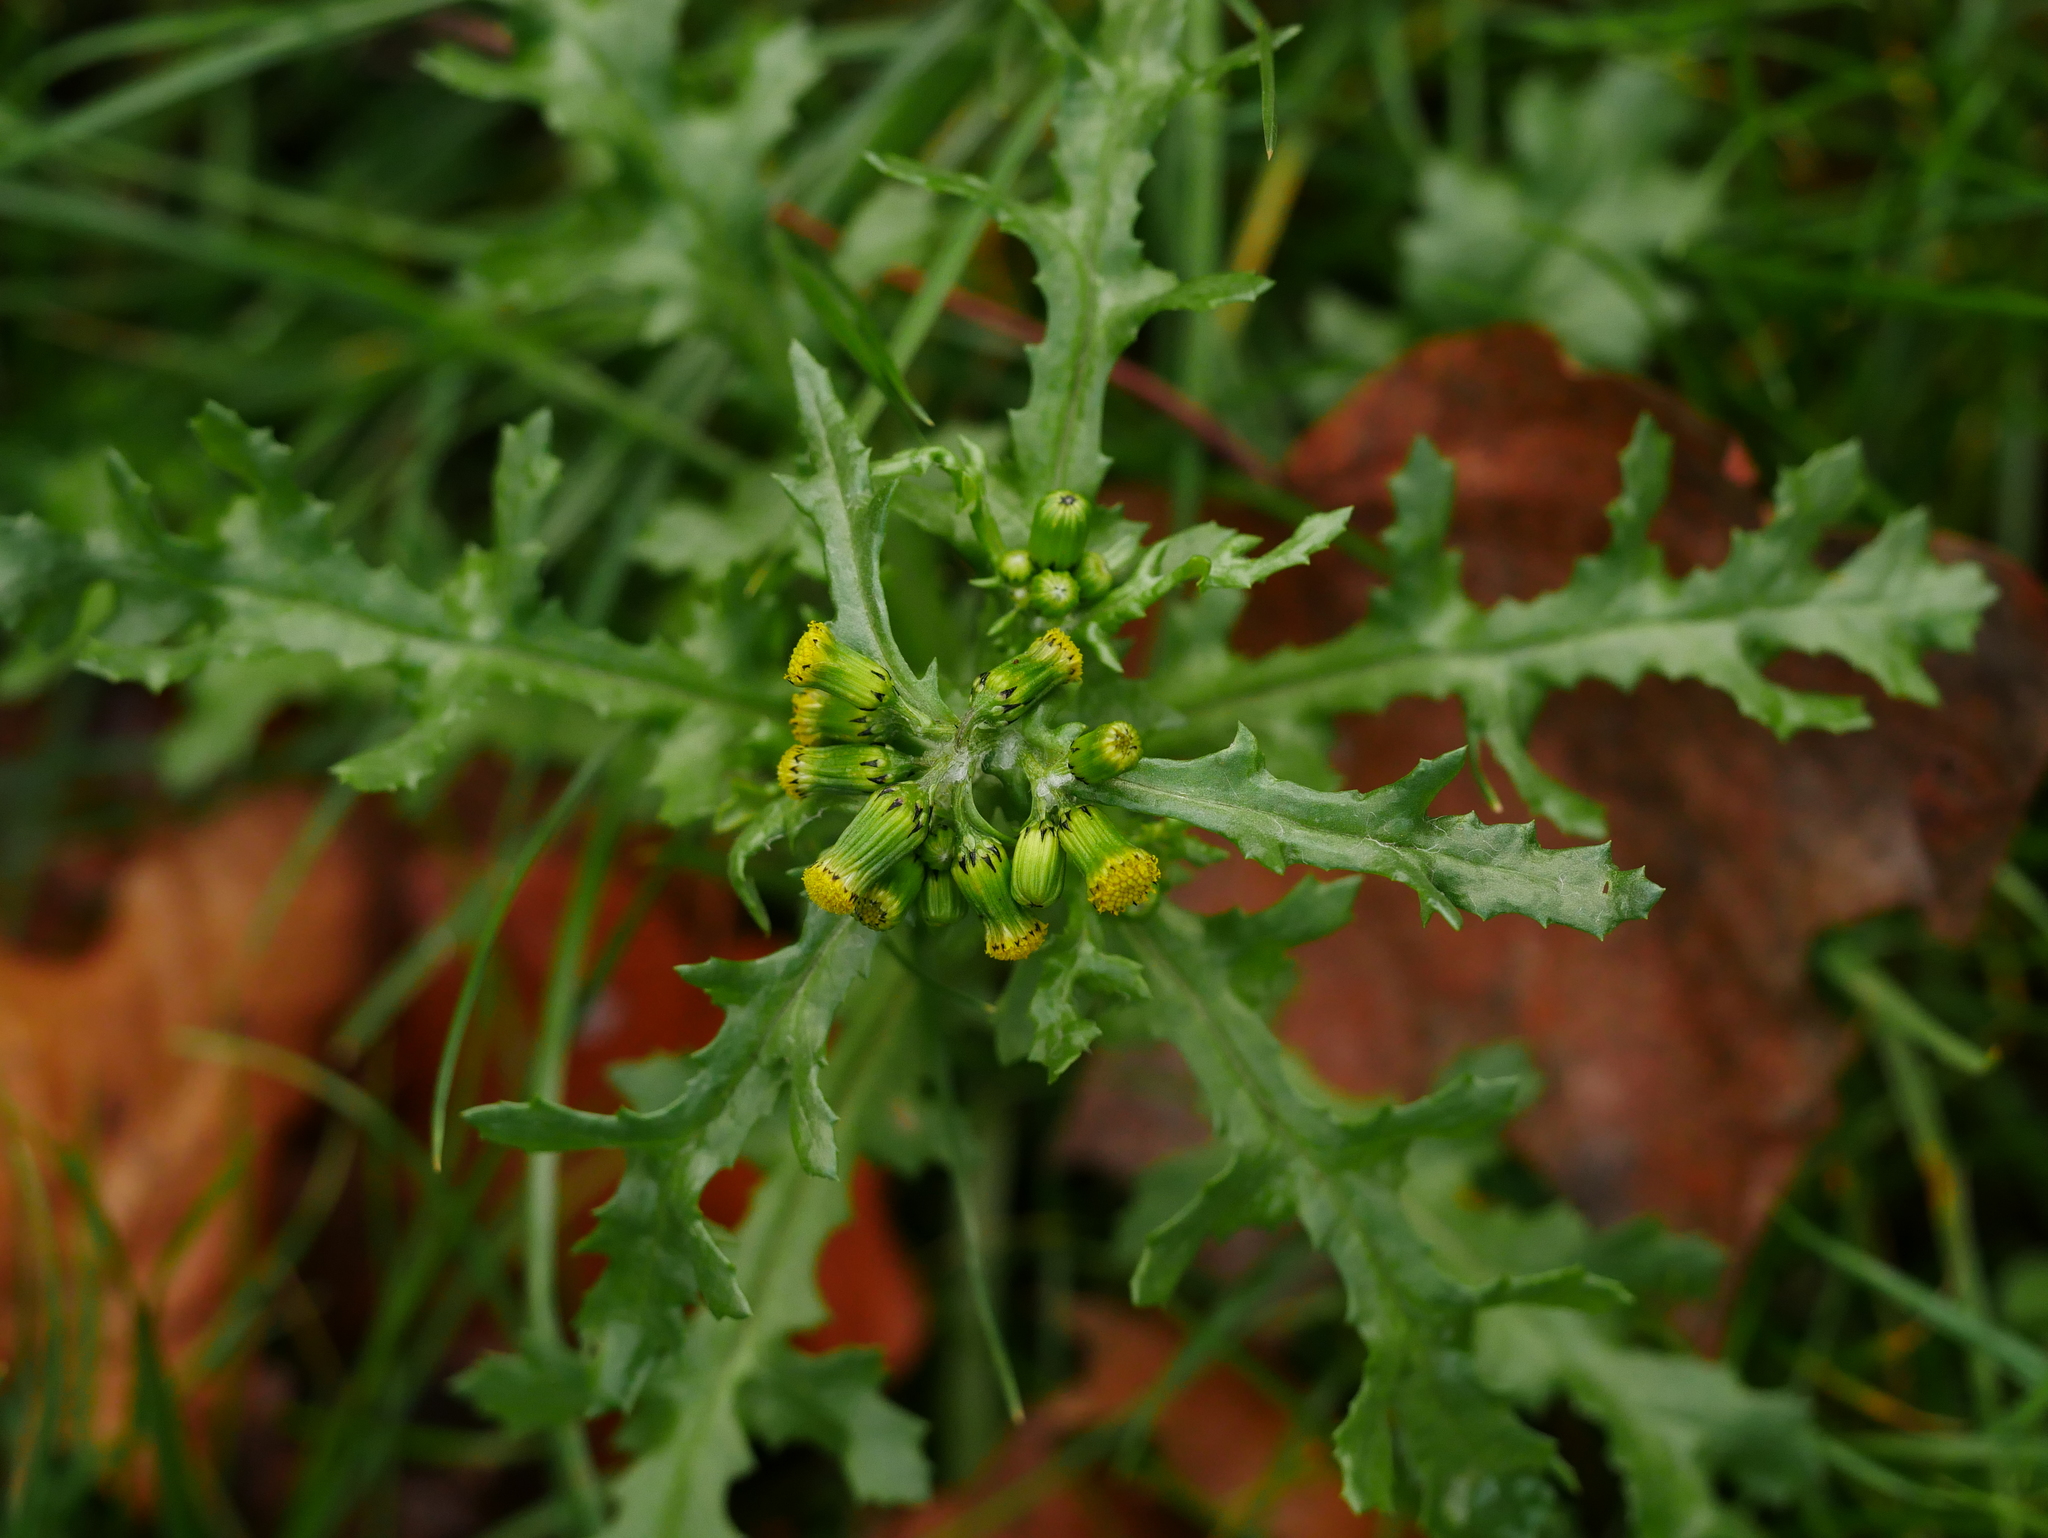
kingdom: Plantae
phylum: Tracheophyta
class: Magnoliopsida
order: Asterales
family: Asteraceae
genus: Senecio
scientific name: Senecio vulgaris
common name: Old-man-in-the-spring
